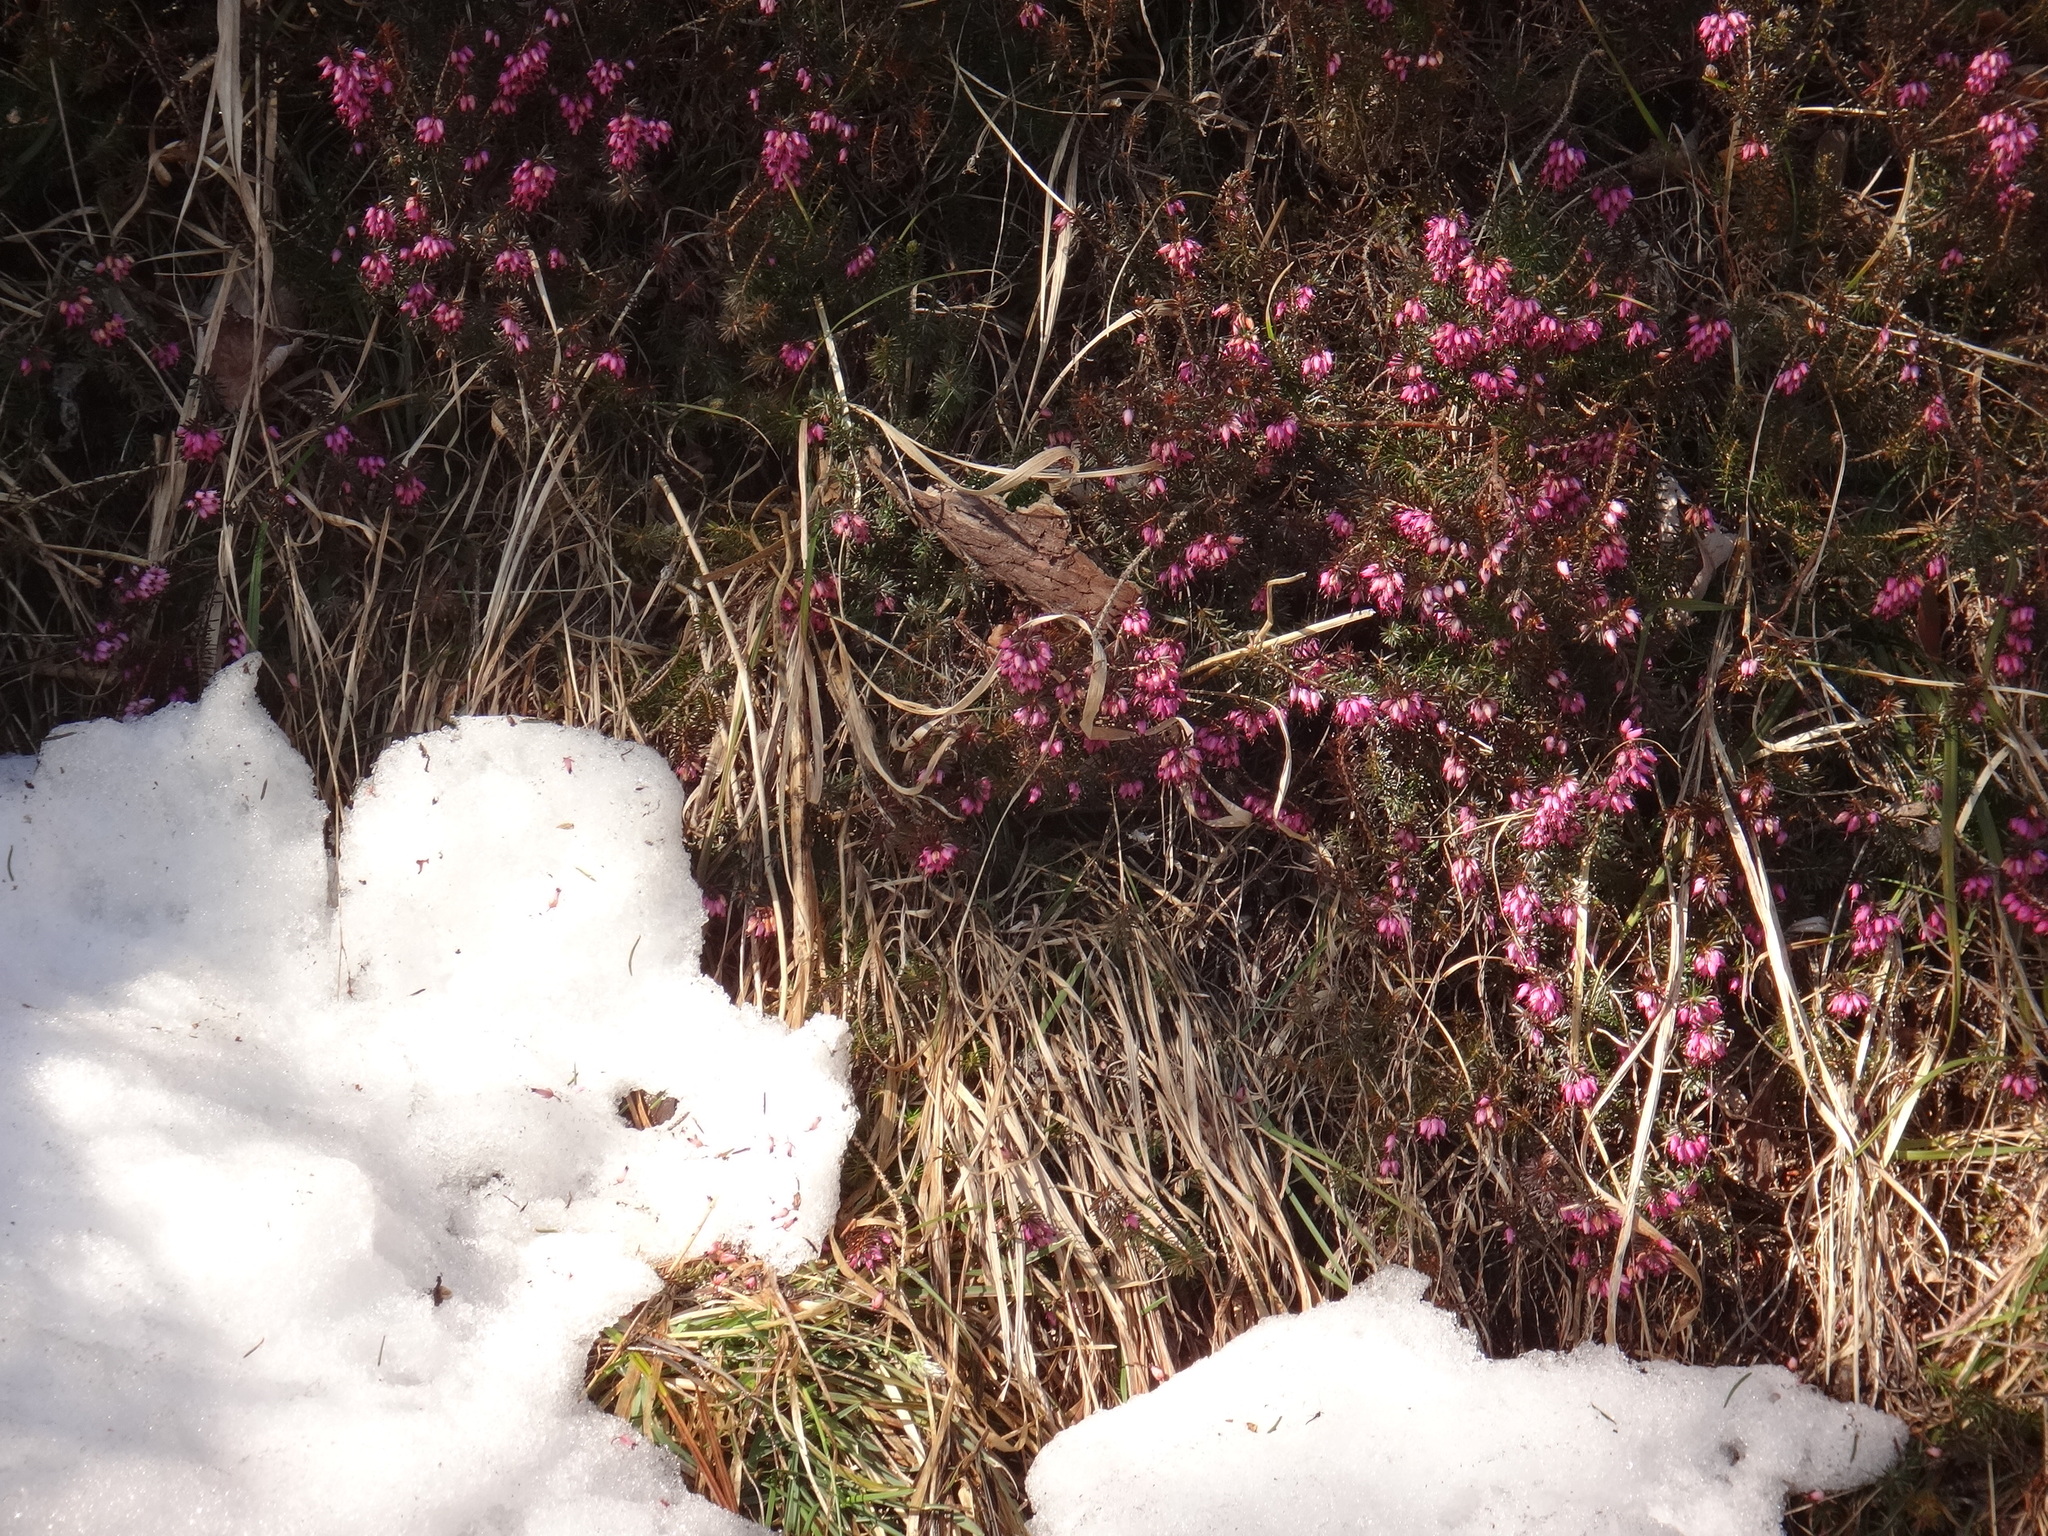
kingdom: Plantae
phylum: Tracheophyta
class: Magnoliopsida
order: Ericales
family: Ericaceae
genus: Erica
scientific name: Erica carnea
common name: Winter heath
